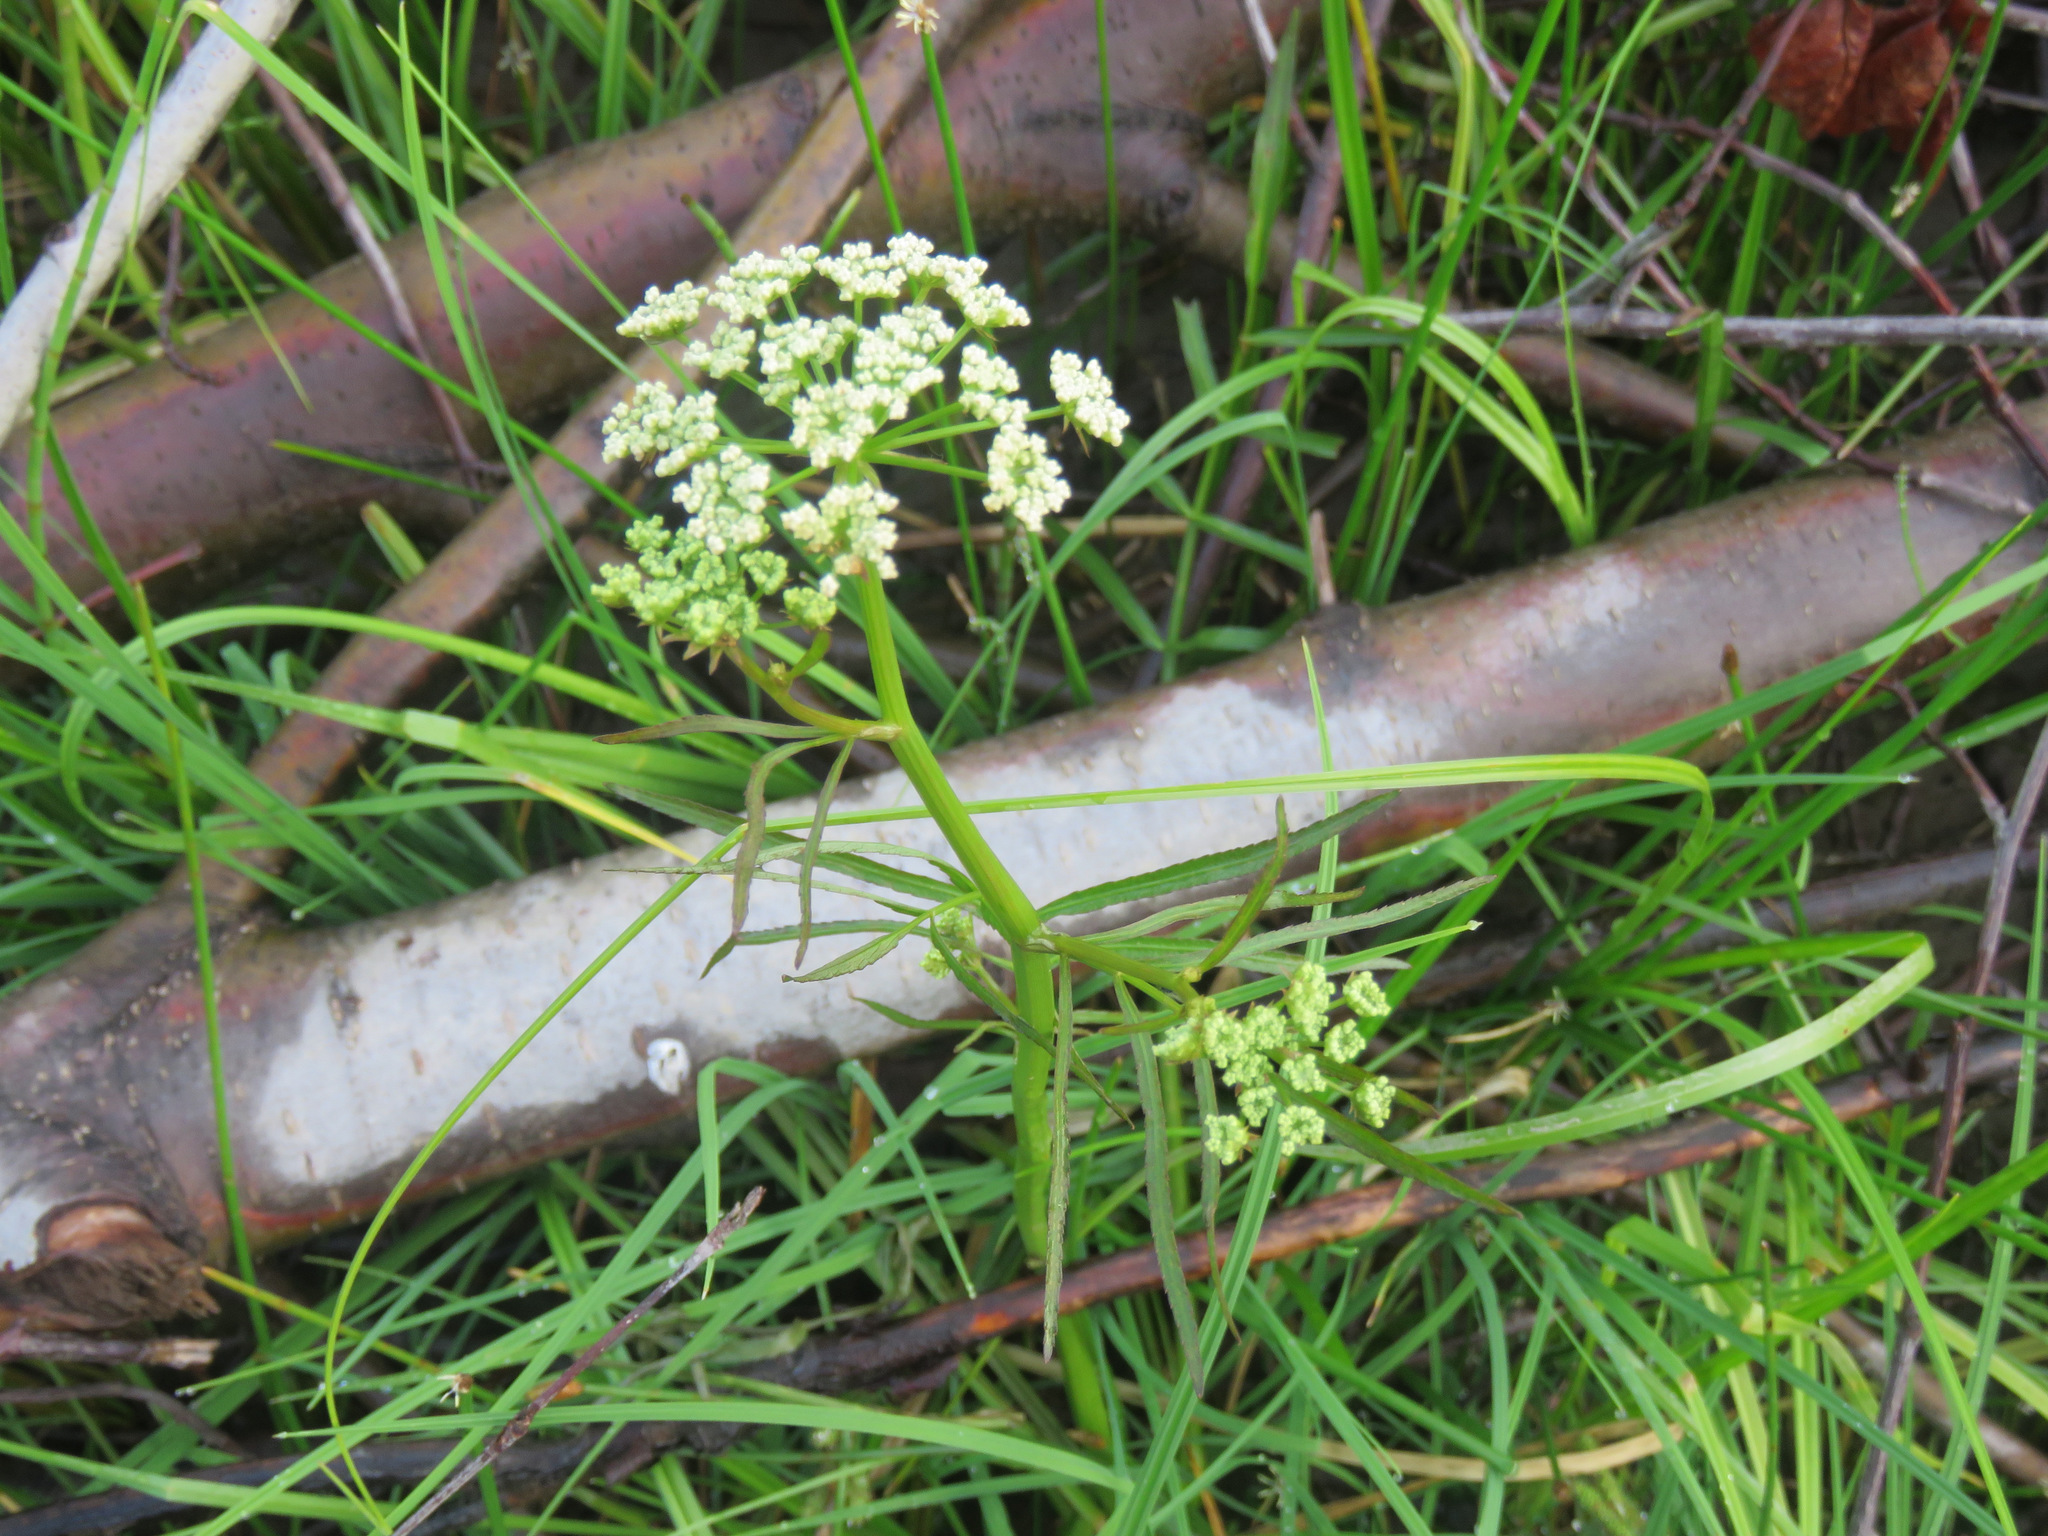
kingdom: Plantae
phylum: Tracheophyta
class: Magnoliopsida
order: Apiales
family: Apiaceae
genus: Sium
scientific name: Sium suave
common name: Hemlock water-parsnip
